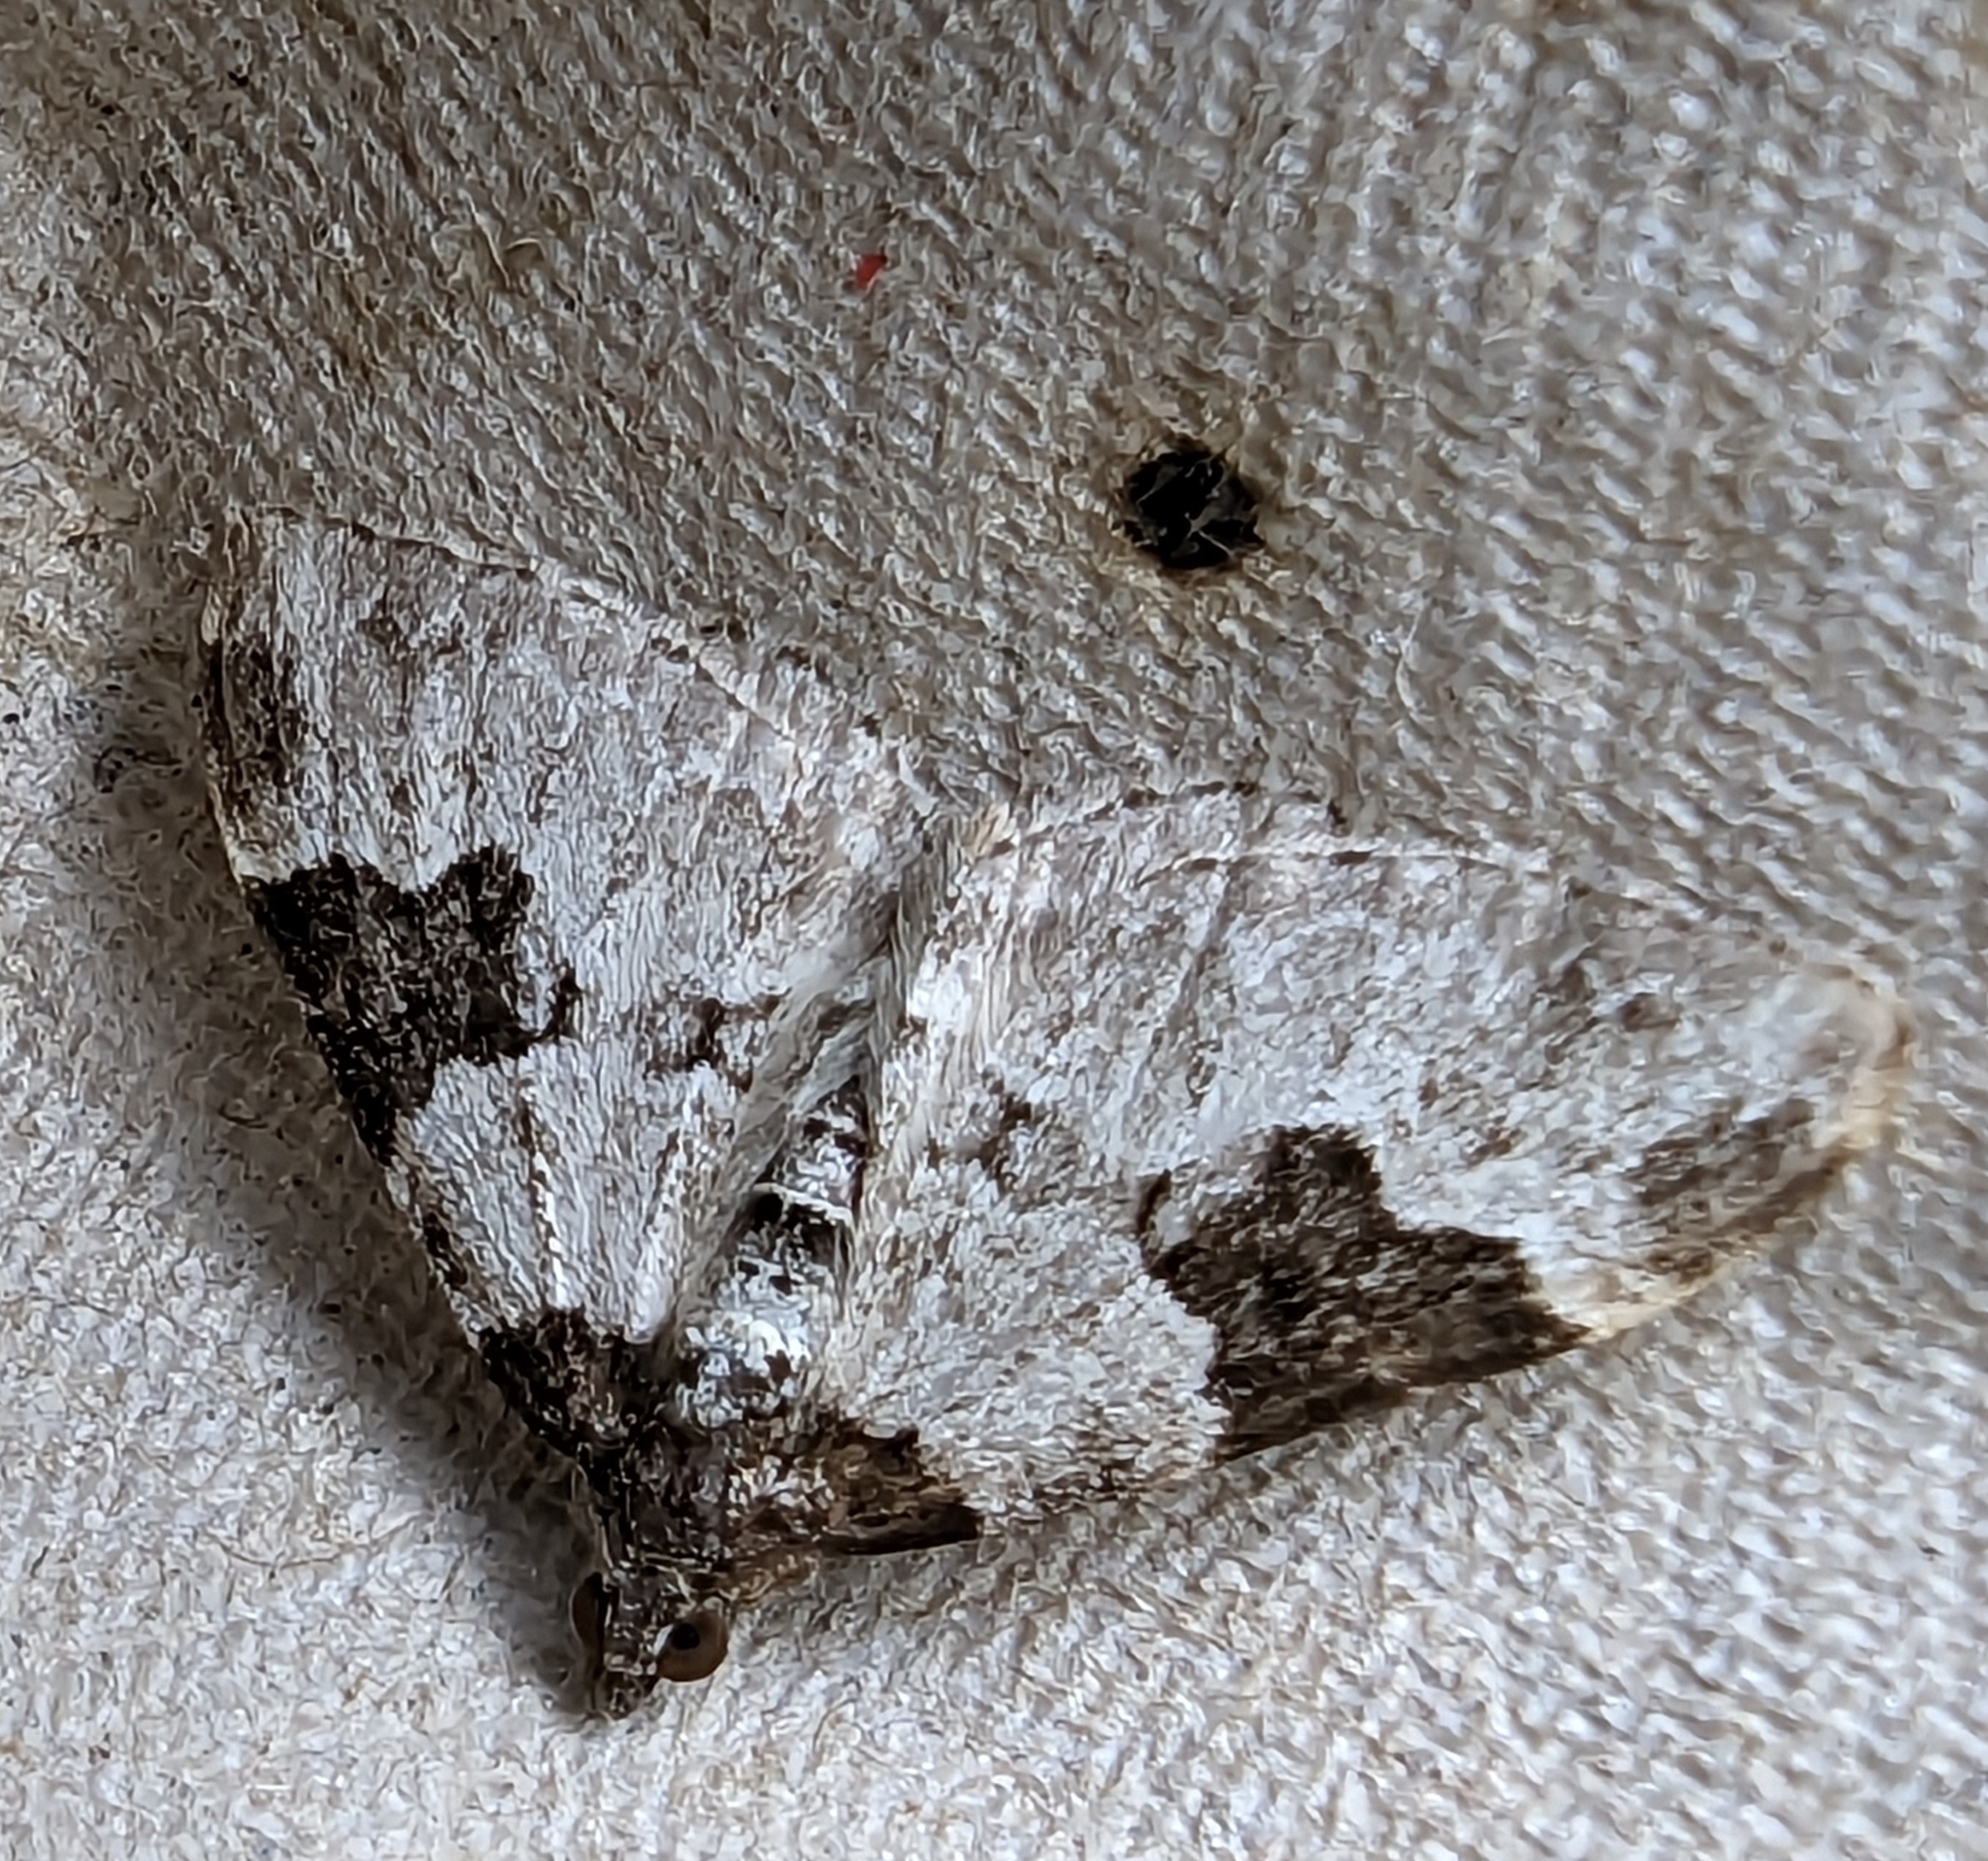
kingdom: Animalia
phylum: Arthropoda
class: Insecta
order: Lepidoptera
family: Geometridae
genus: Xanthorhoe
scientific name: Xanthorhoe fluctuata
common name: Garden carpet
